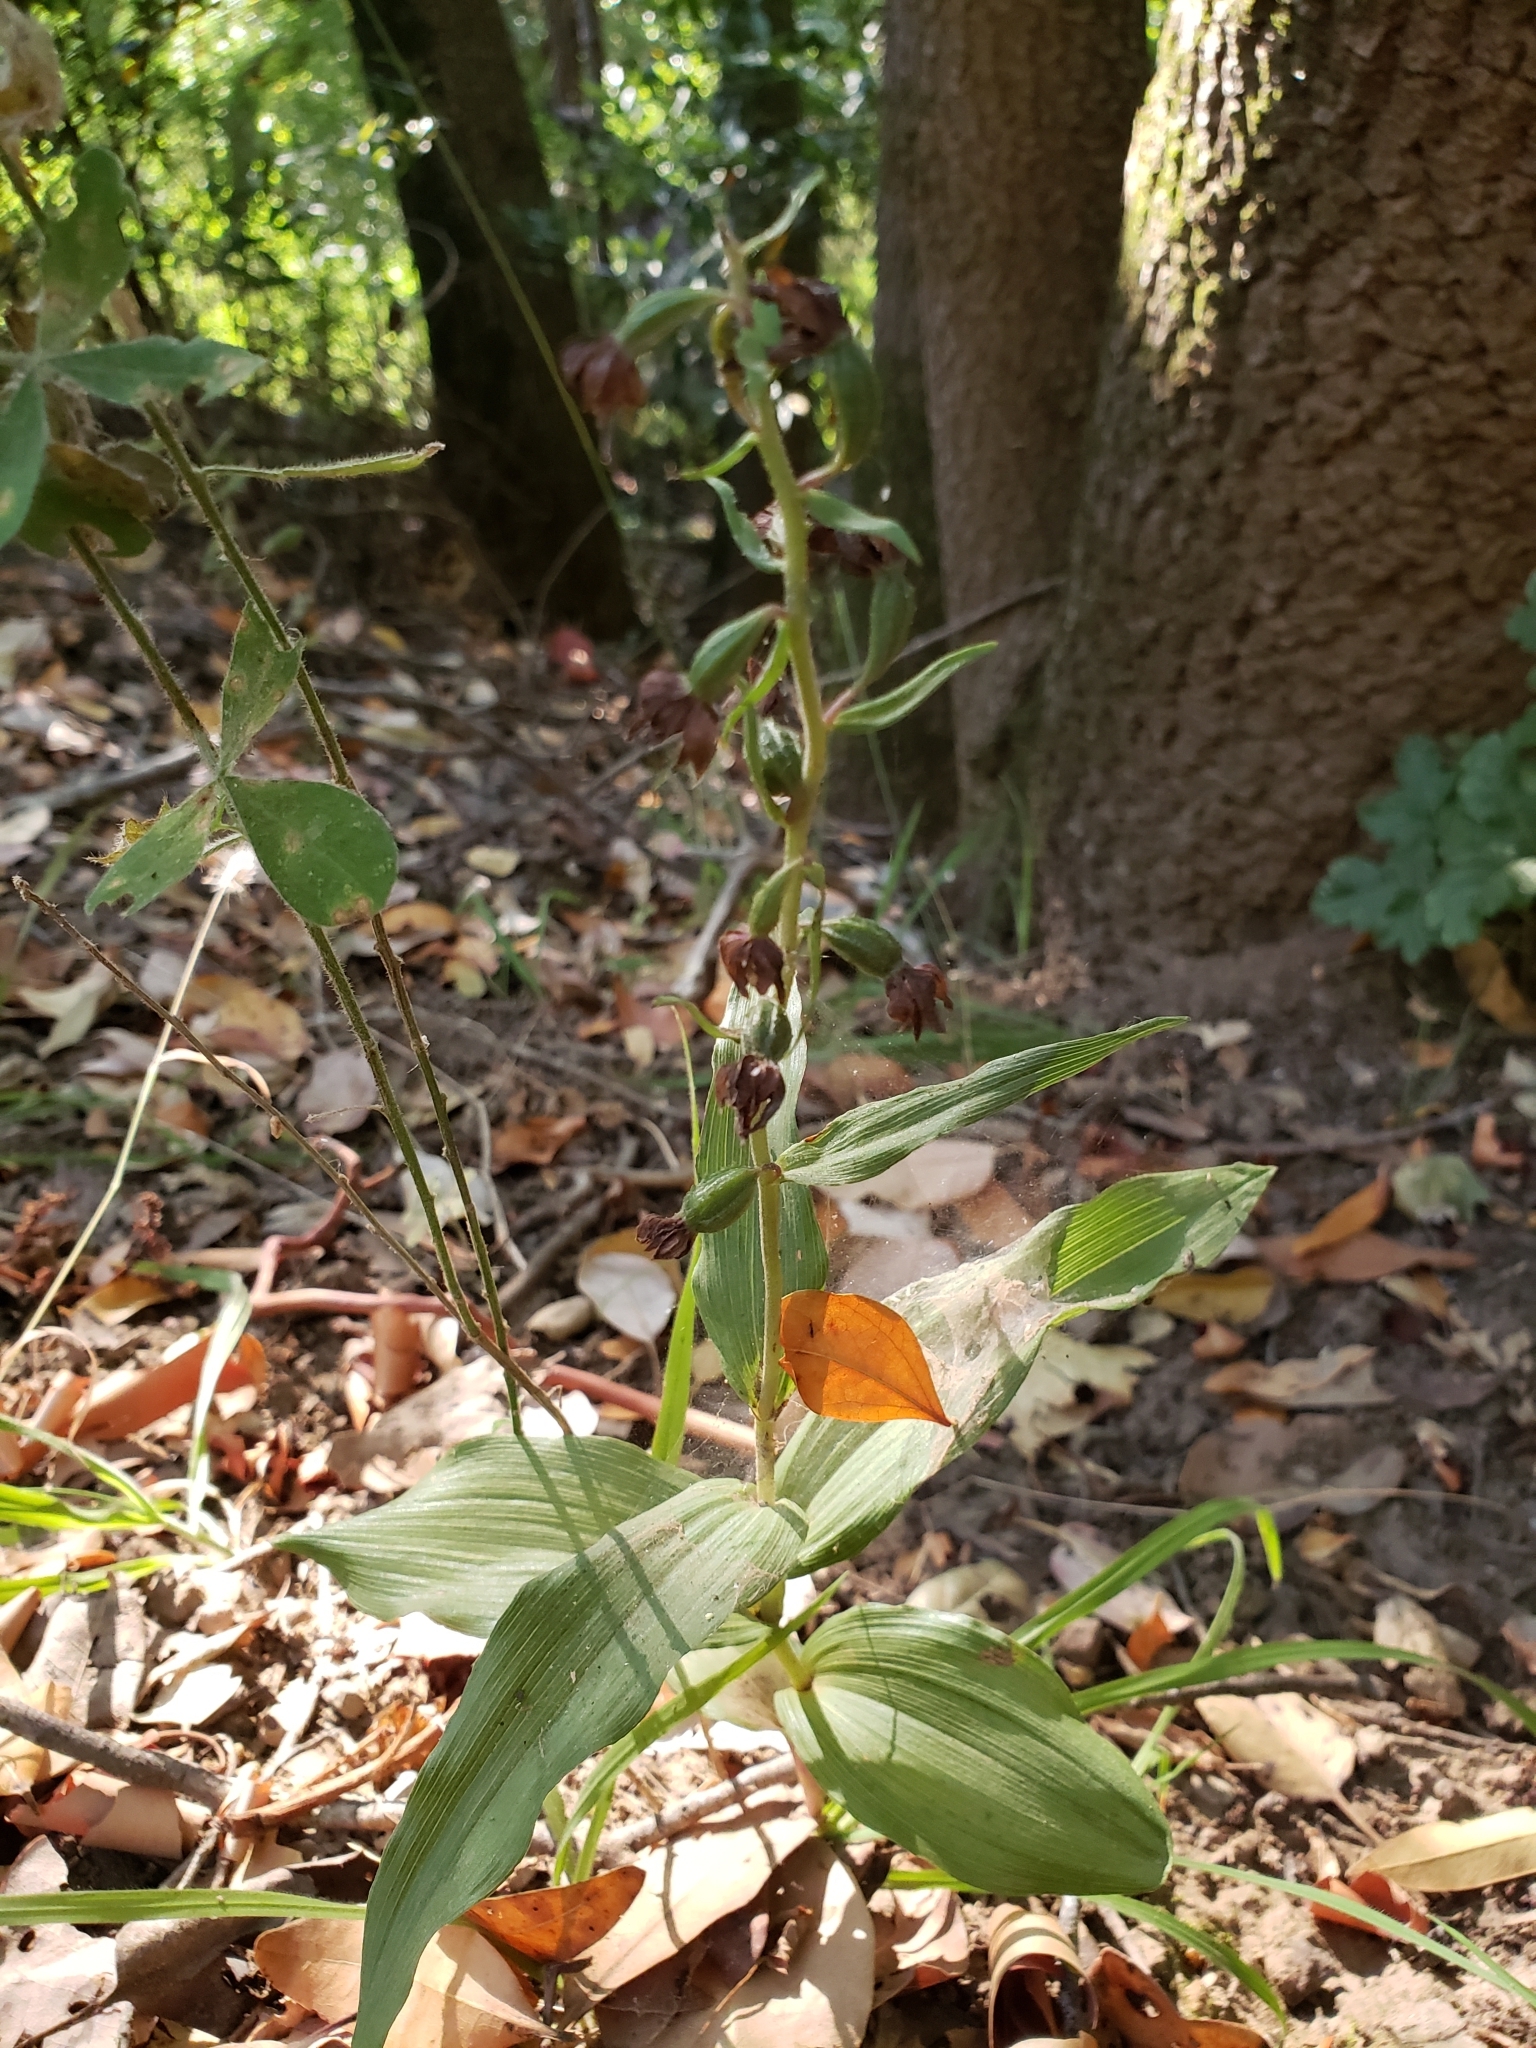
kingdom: Plantae
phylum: Tracheophyta
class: Liliopsida
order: Asparagales
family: Orchidaceae
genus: Epipactis
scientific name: Epipactis helleborine
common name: Broad-leaved helleborine
